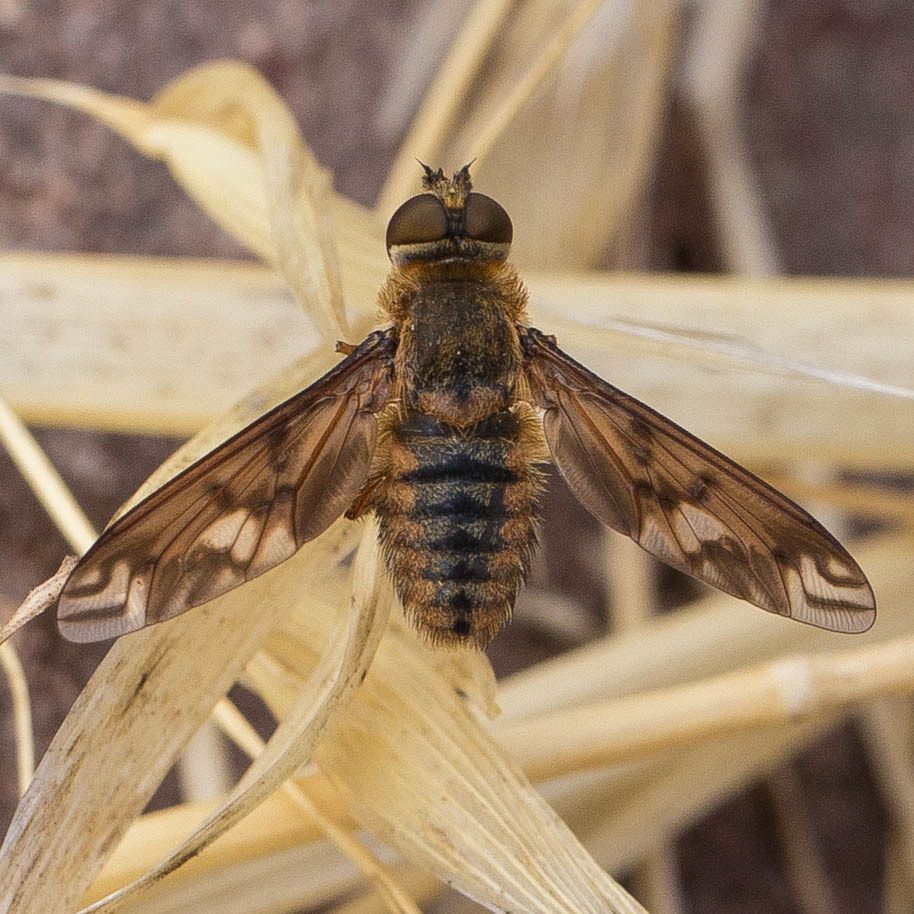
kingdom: Animalia
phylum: Arthropoda
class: Insecta
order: Diptera
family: Bombyliidae
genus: Poecilanthrax
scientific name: Poecilanthrax arethusa
